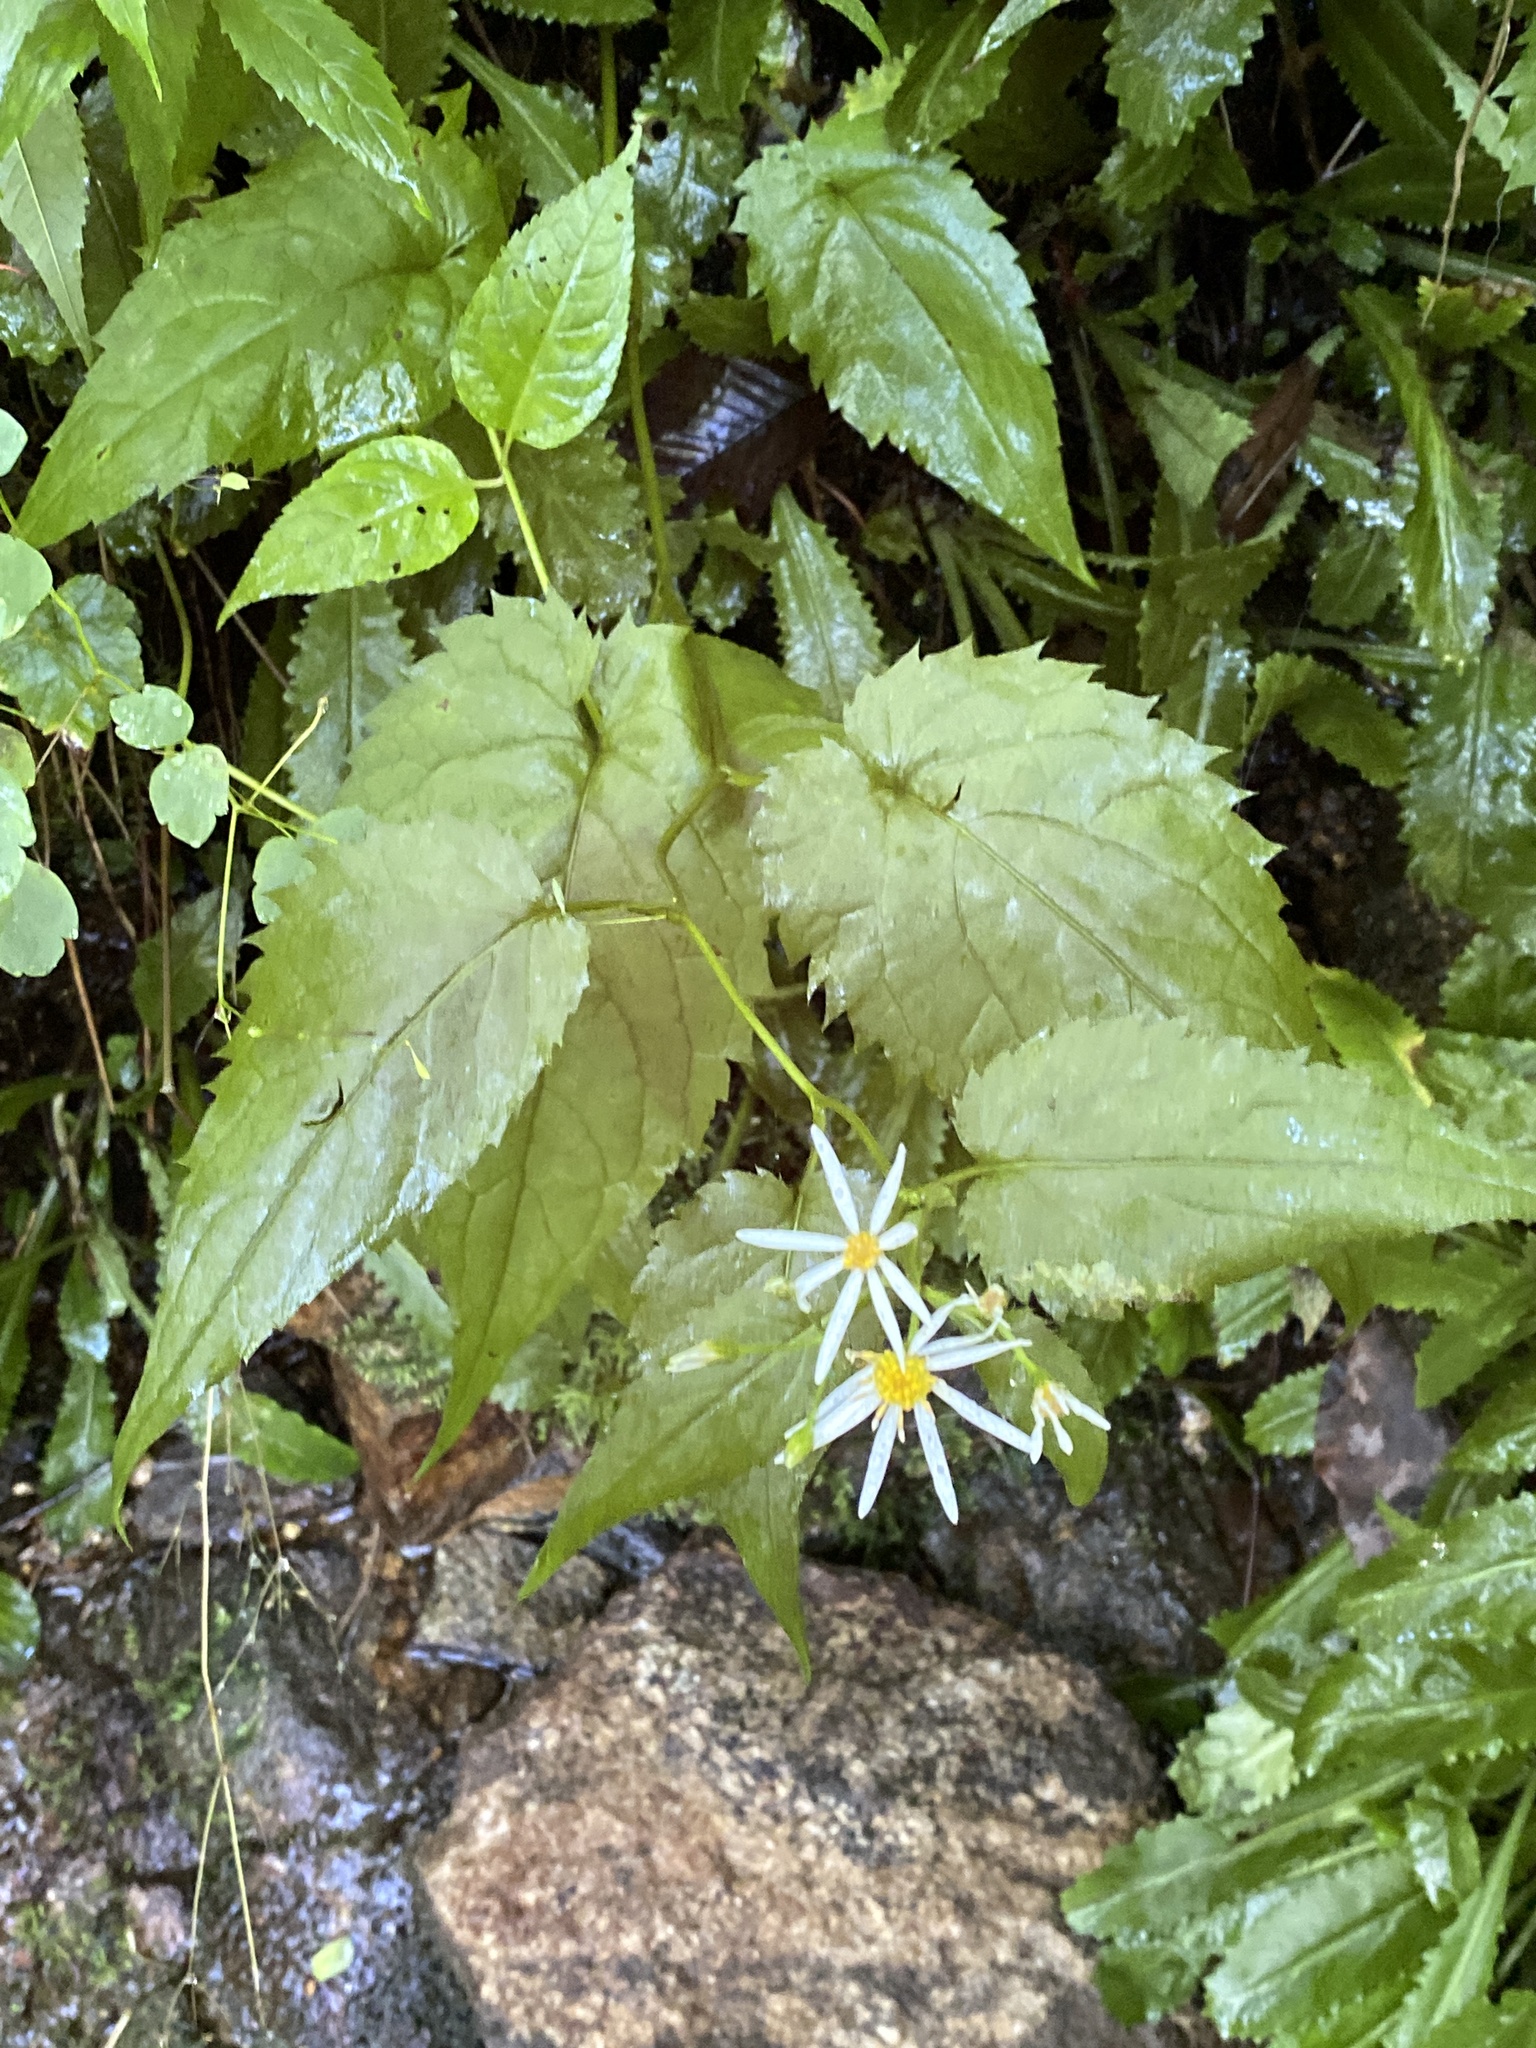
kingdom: Plantae
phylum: Tracheophyta
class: Magnoliopsida
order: Asterales
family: Asteraceae
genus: Eurybia
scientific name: Eurybia chlorolepis
